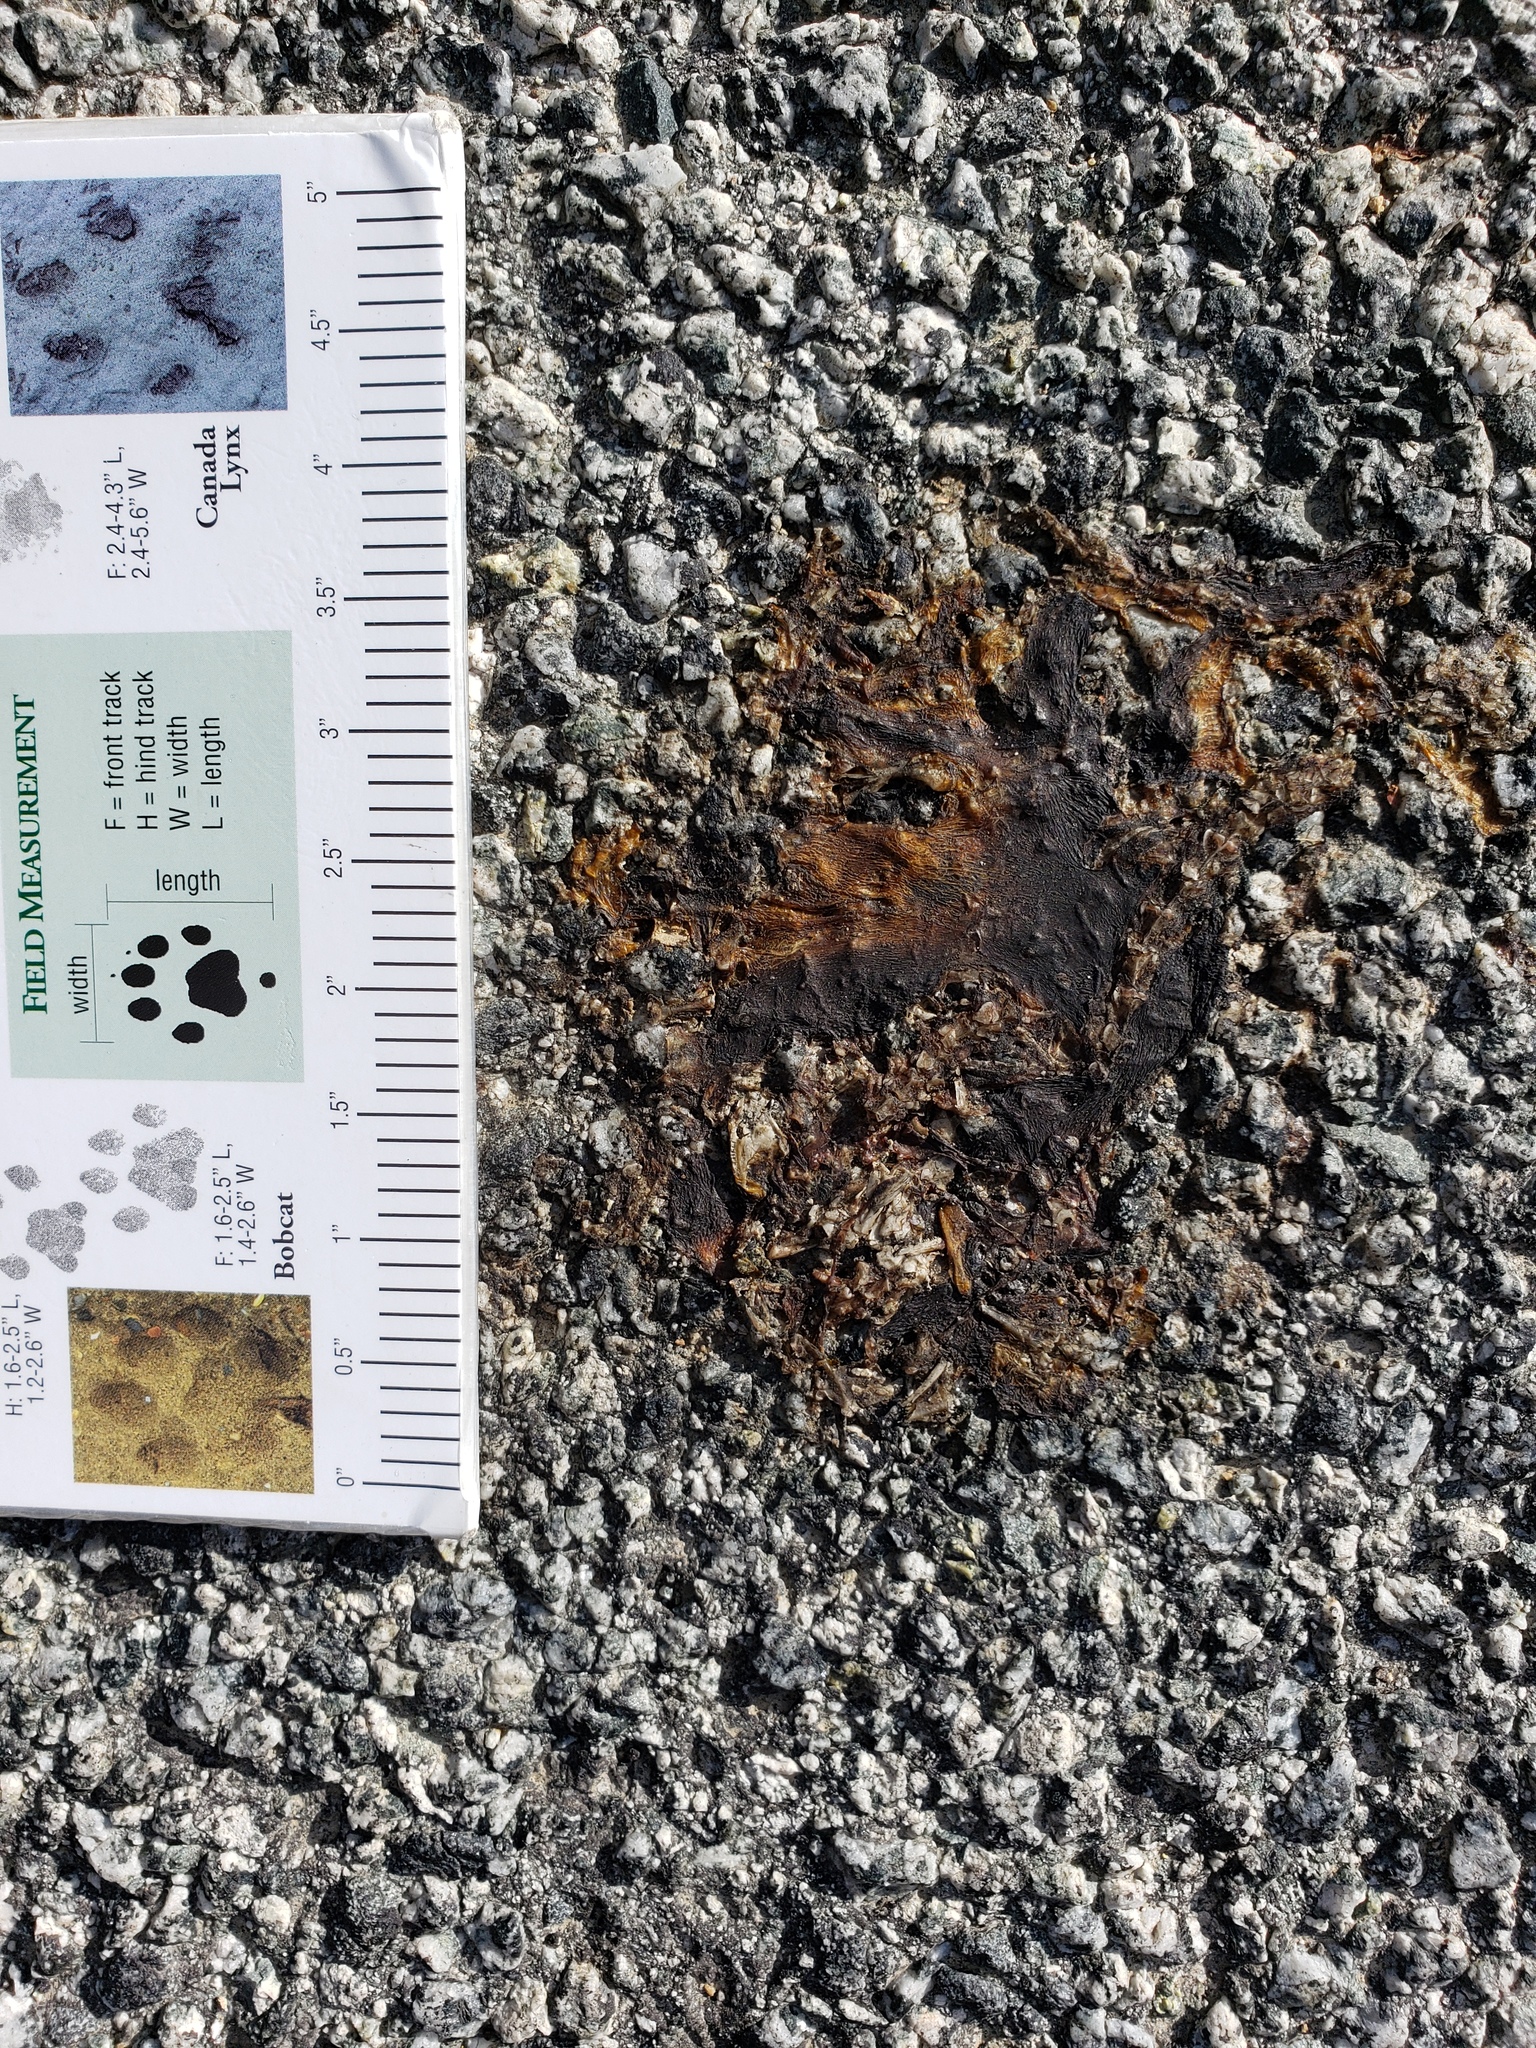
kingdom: Animalia
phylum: Chordata
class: Amphibia
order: Caudata
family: Salamandridae
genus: Taricha
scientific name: Taricha
